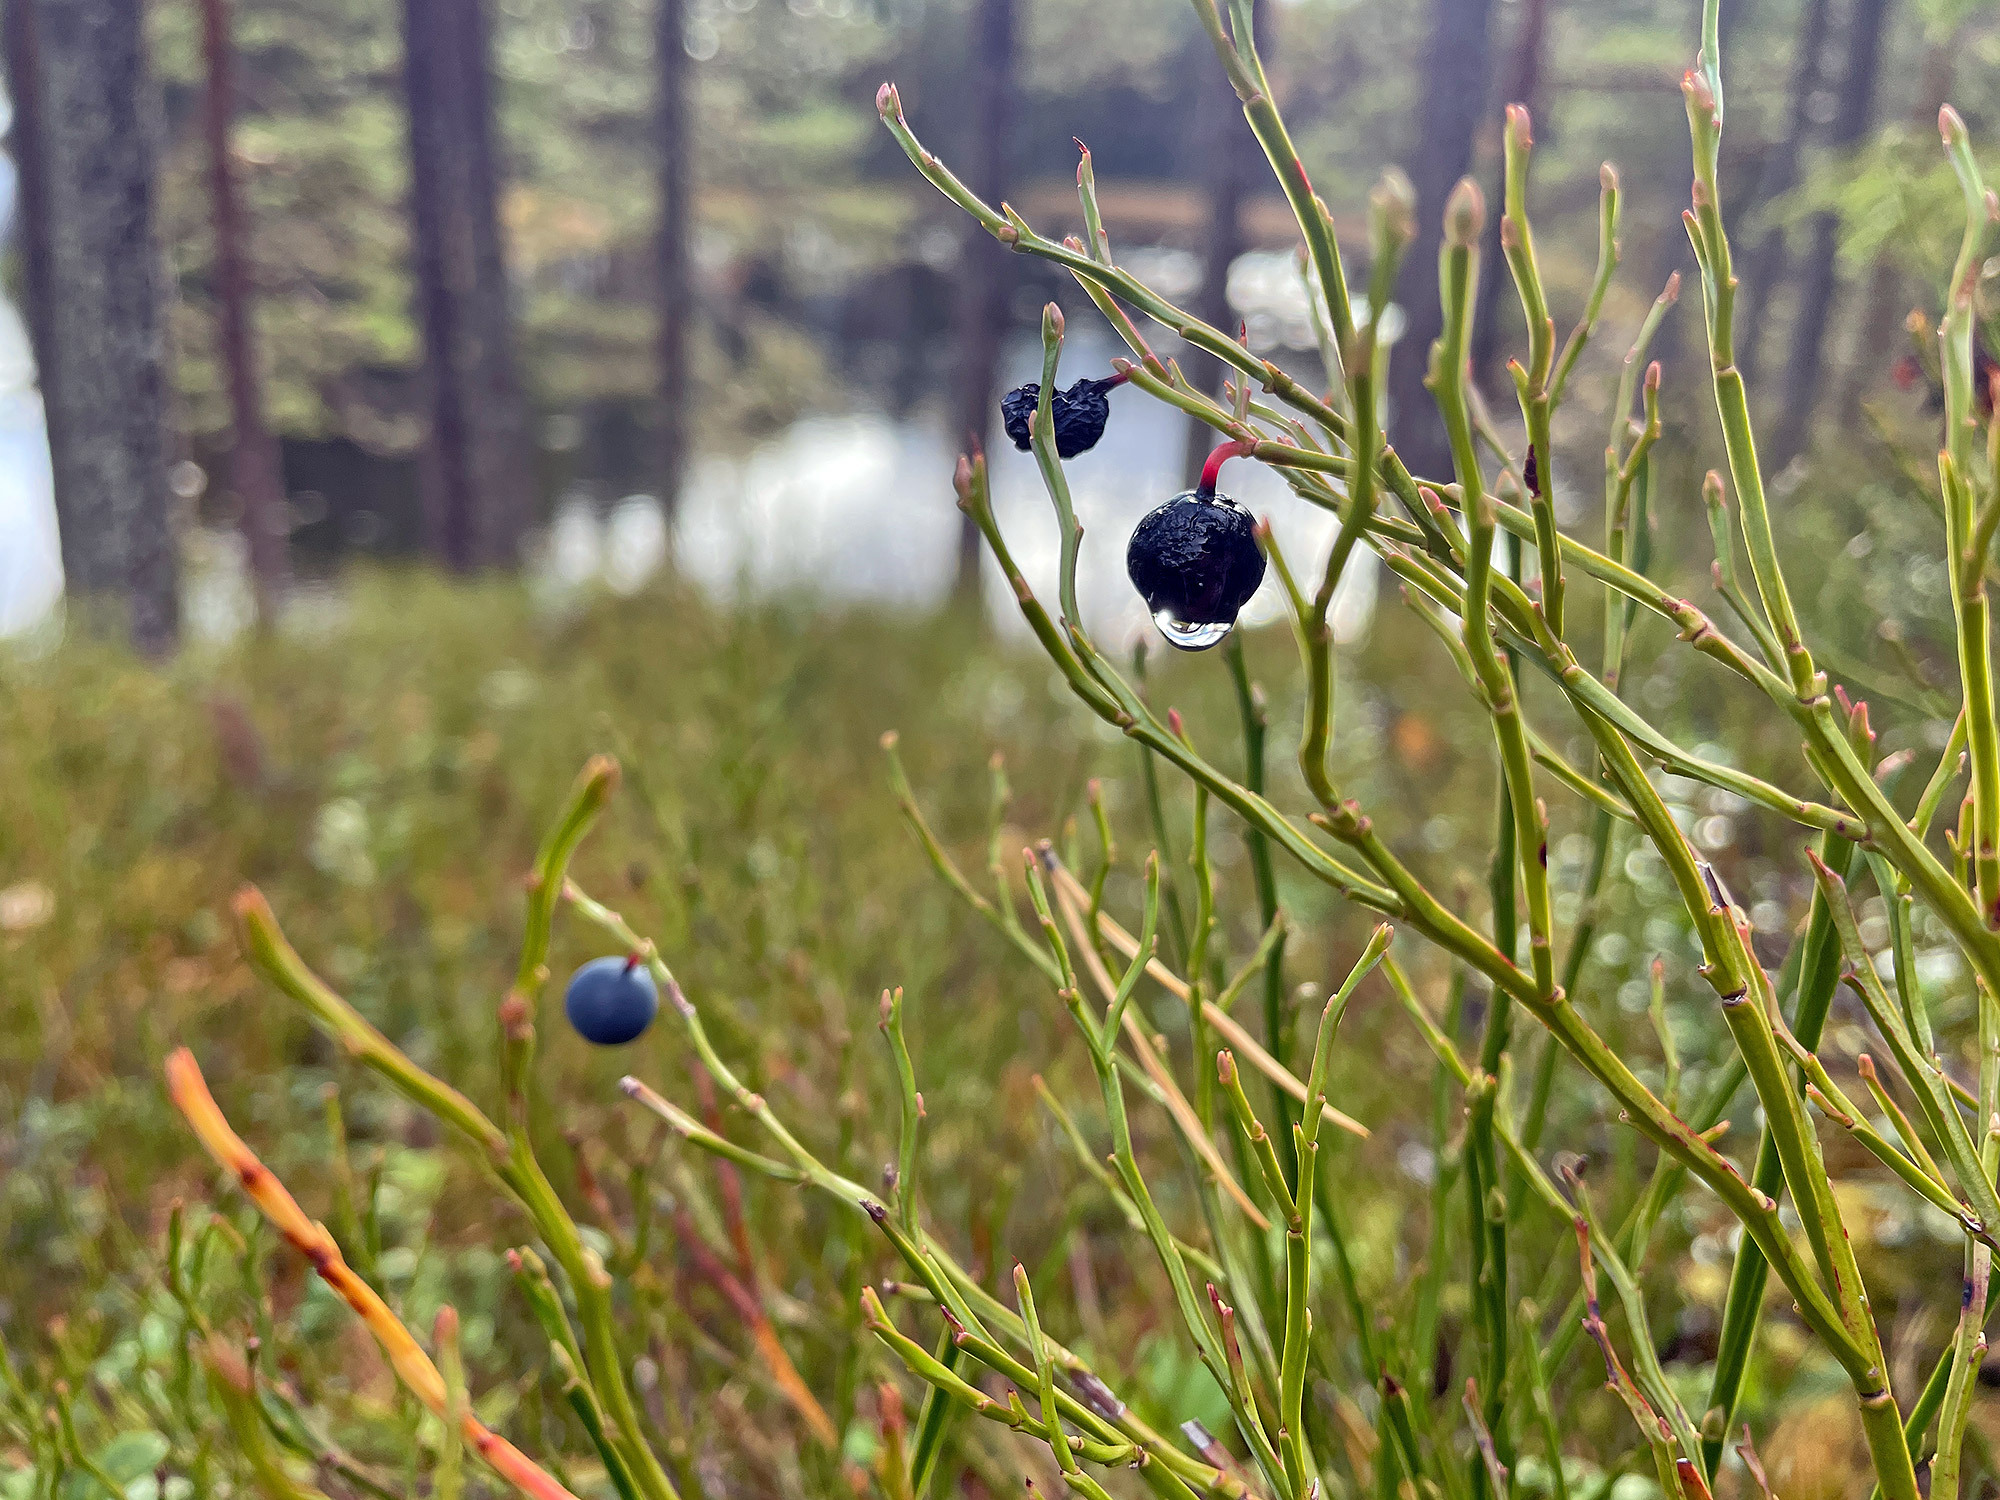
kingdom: Plantae
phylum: Tracheophyta
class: Magnoliopsida
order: Ericales
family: Ericaceae
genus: Vaccinium
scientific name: Vaccinium myrtillus
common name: Bilberry
